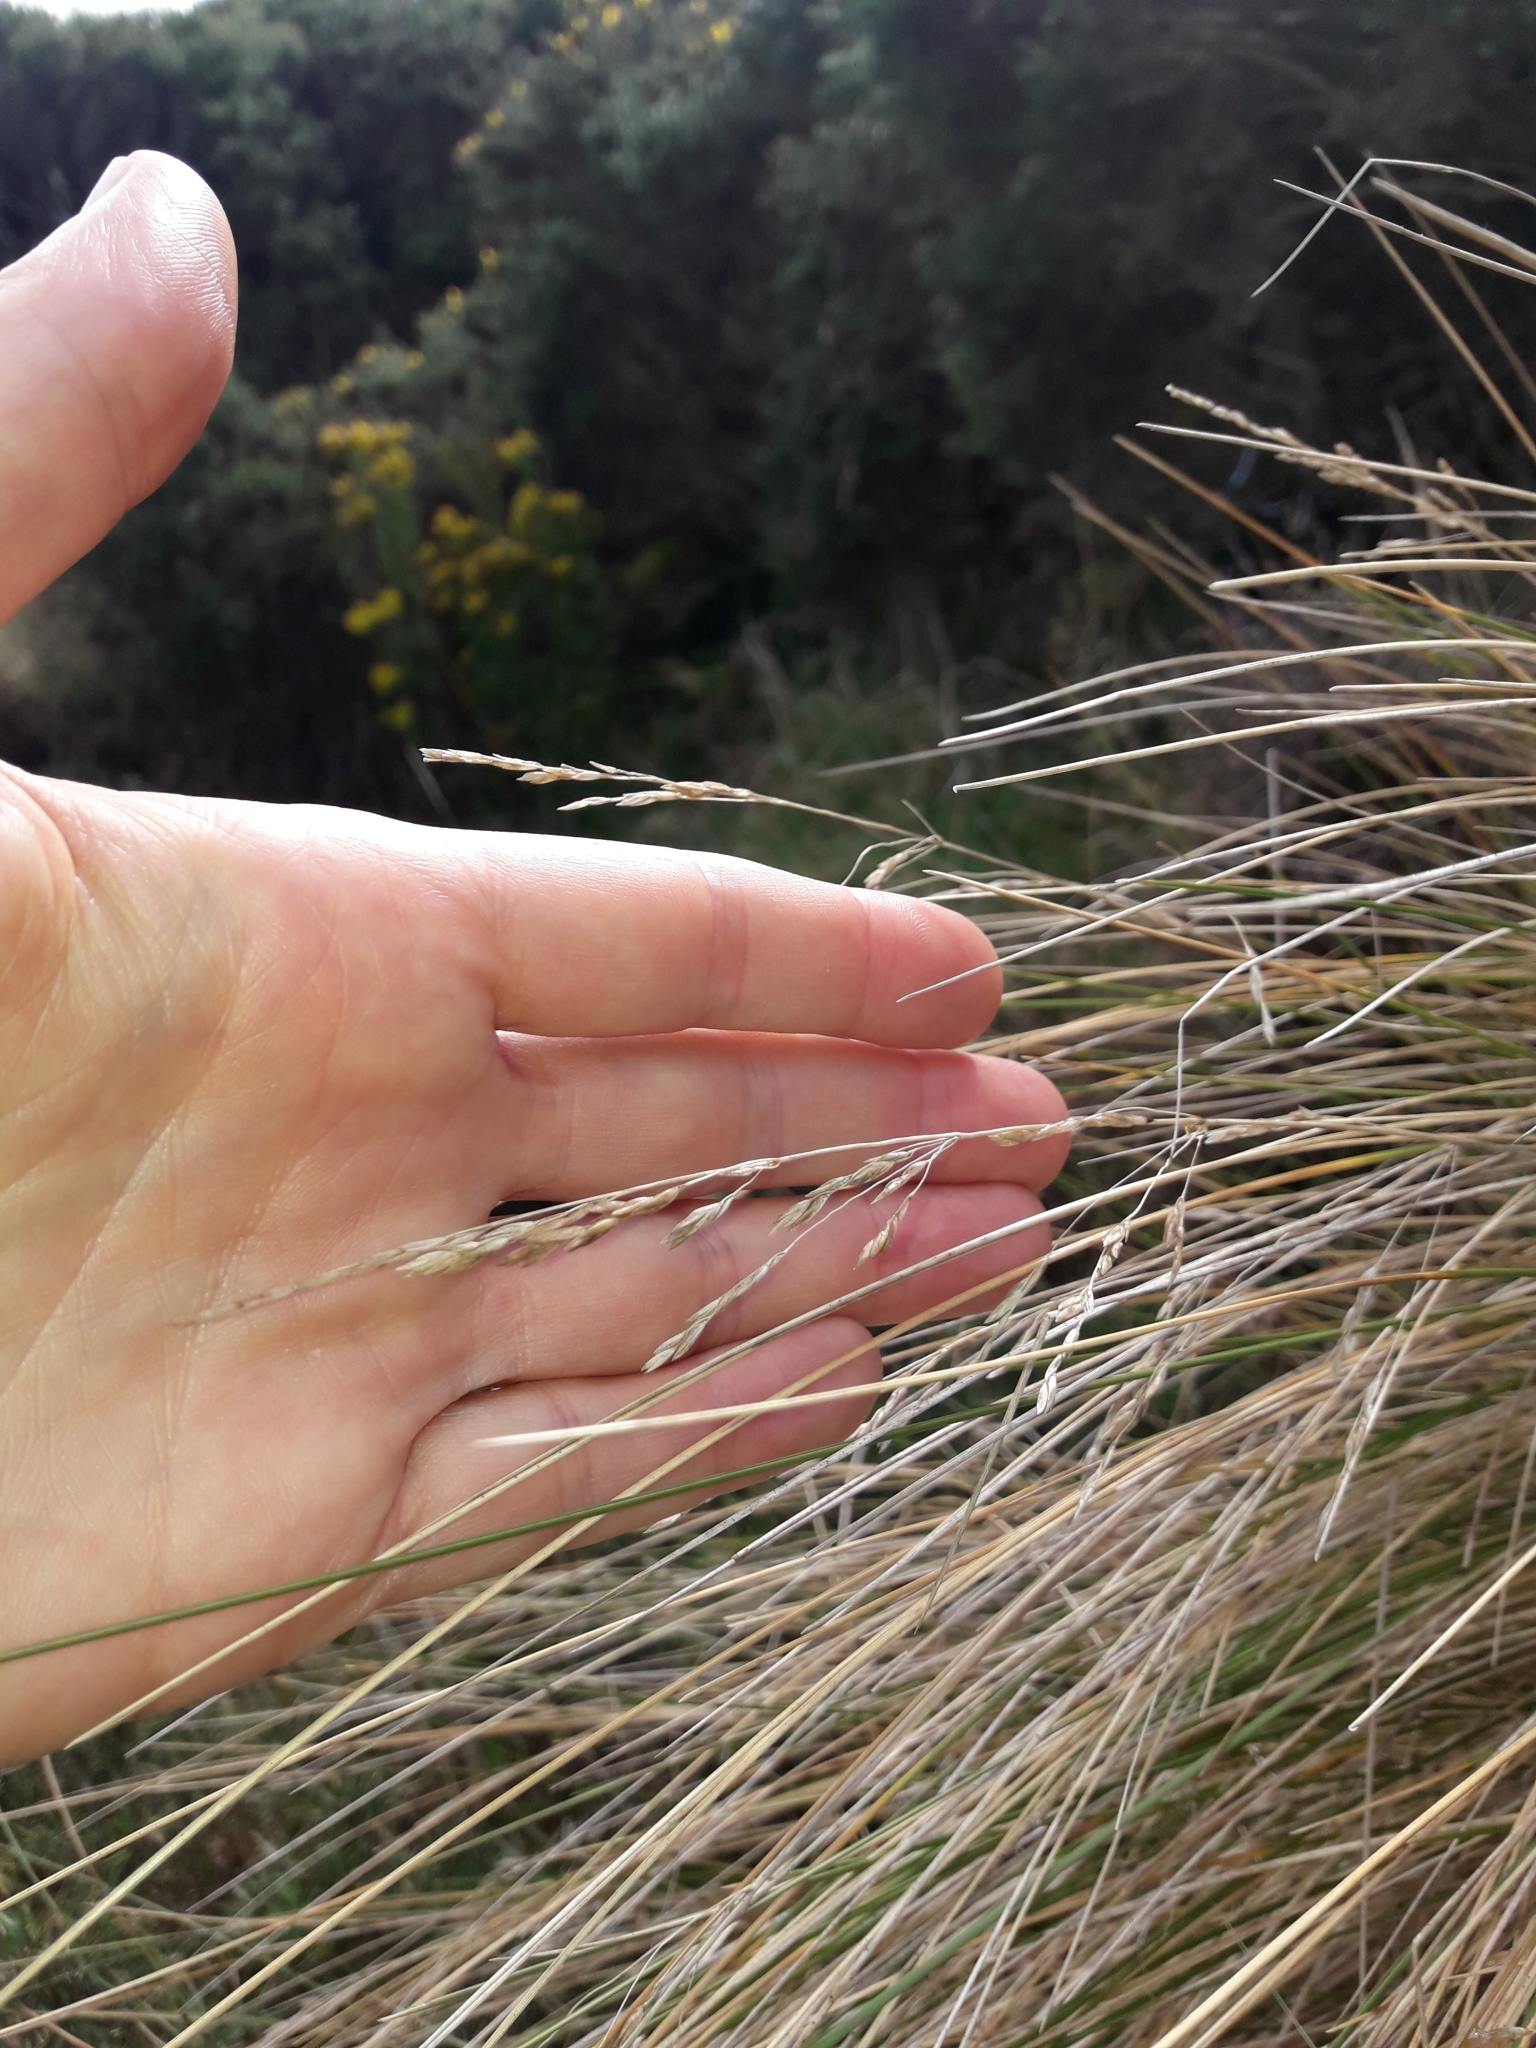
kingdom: Plantae
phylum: Tracheophyta
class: Liliopsida
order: Poales
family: Poaceae
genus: Poa
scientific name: Poa cita
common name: Silver tussock
